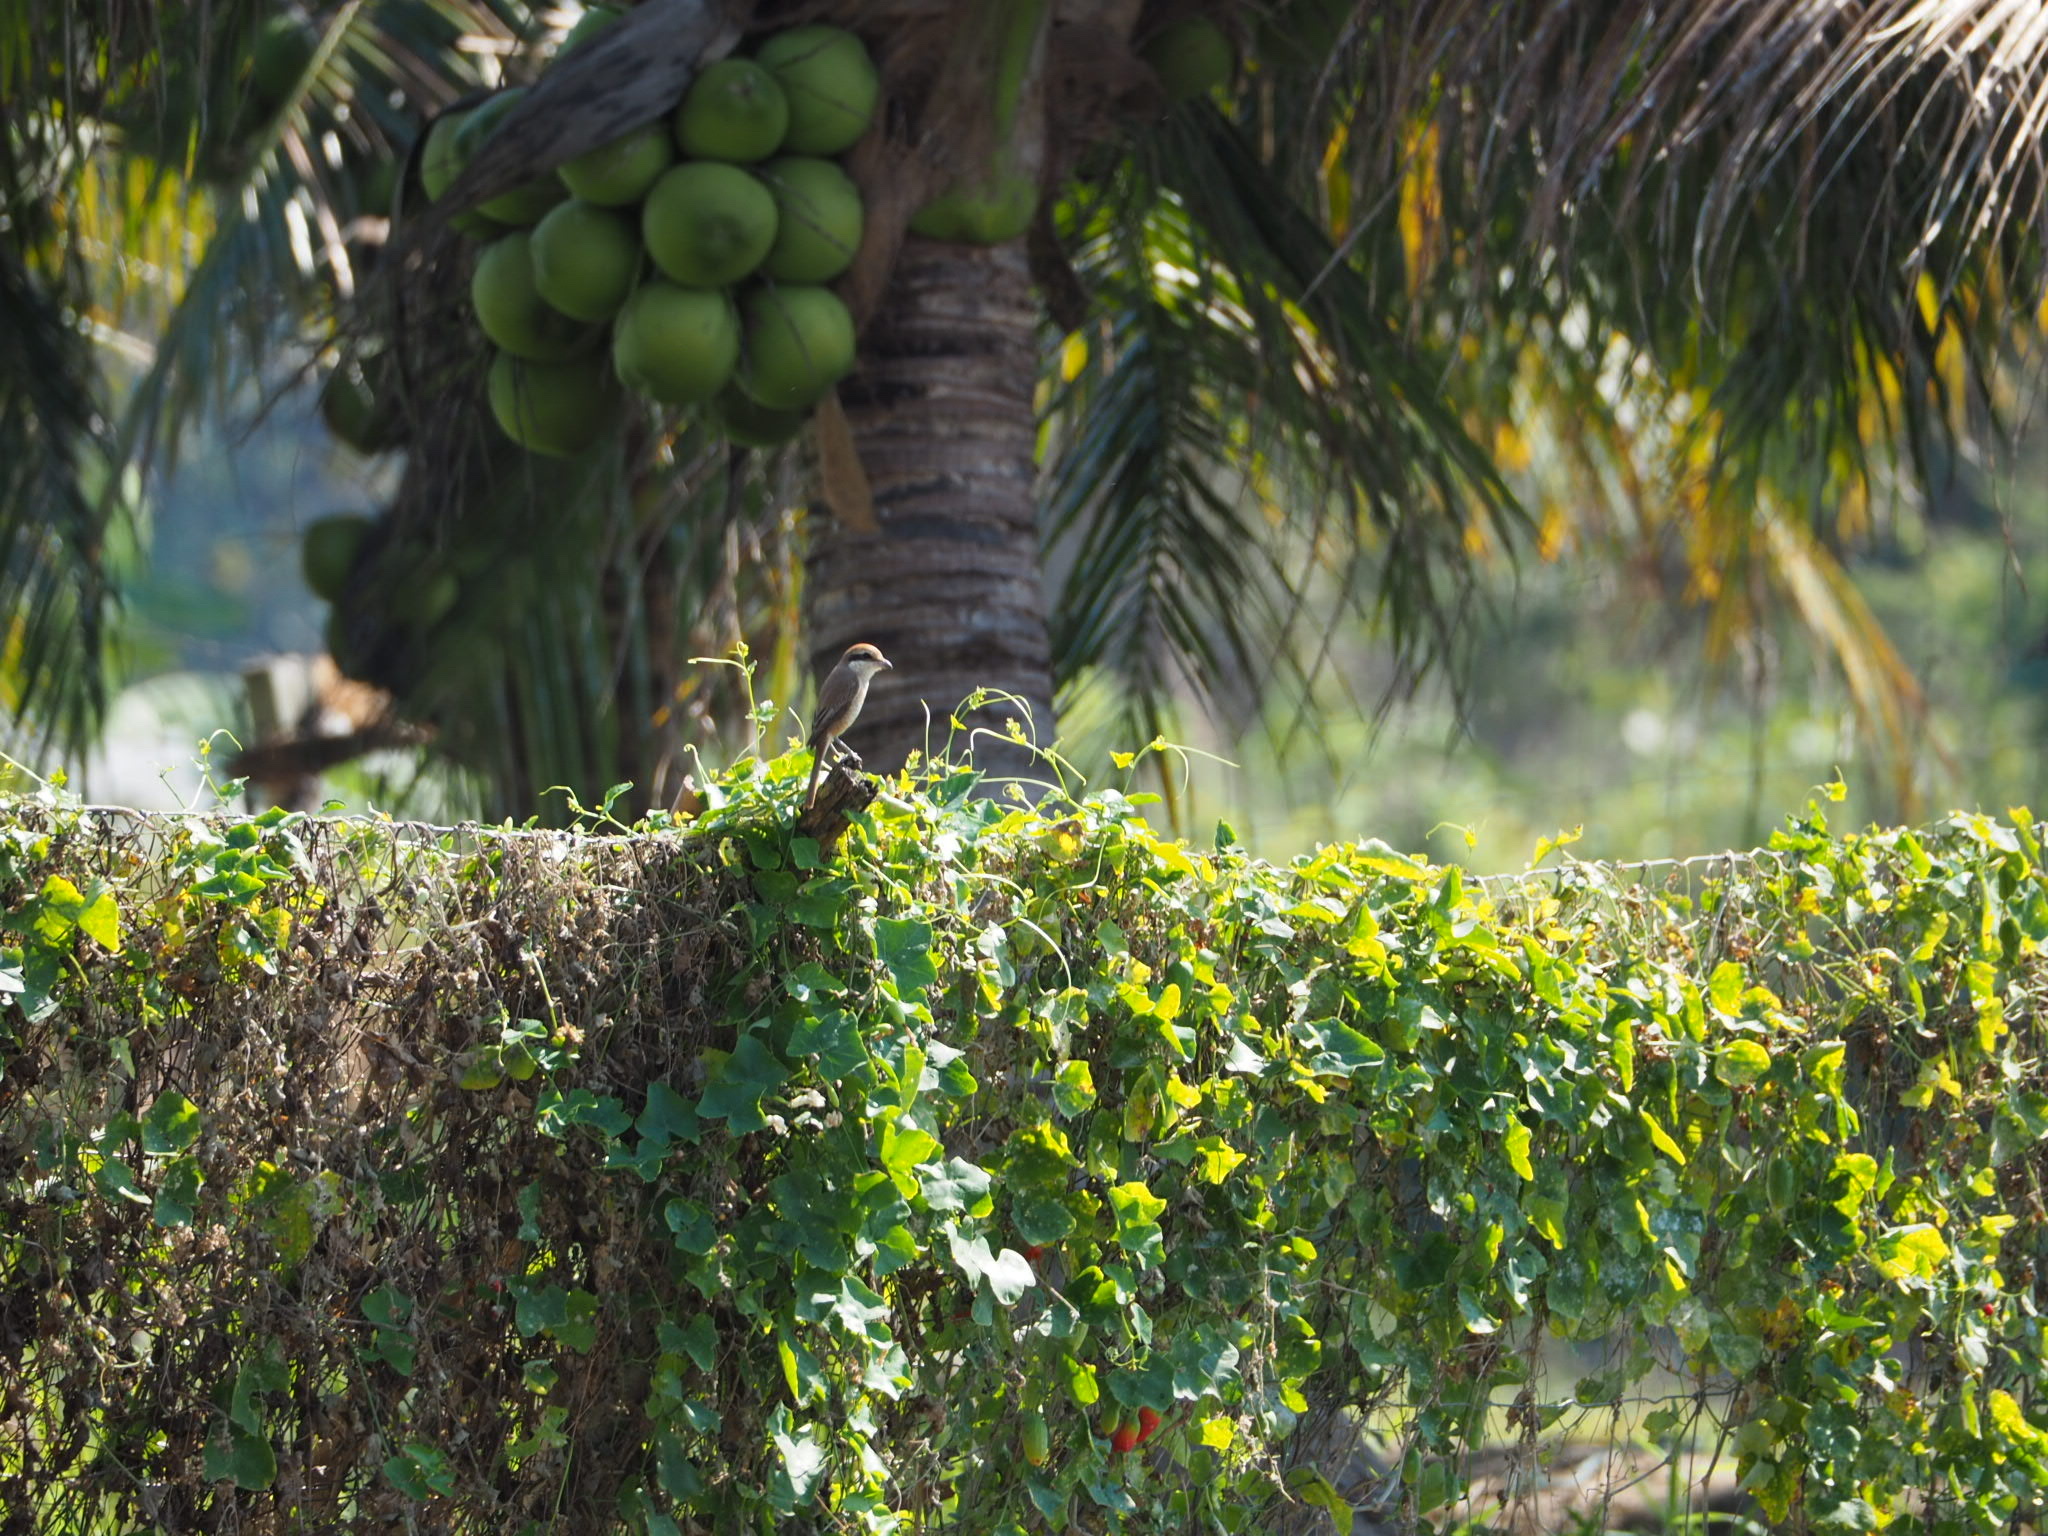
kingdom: Animalia
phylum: Chordata
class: Aves
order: Passeriformes
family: Laniidae
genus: Lanius
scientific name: Lanius cristatus
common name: Brown shrike
